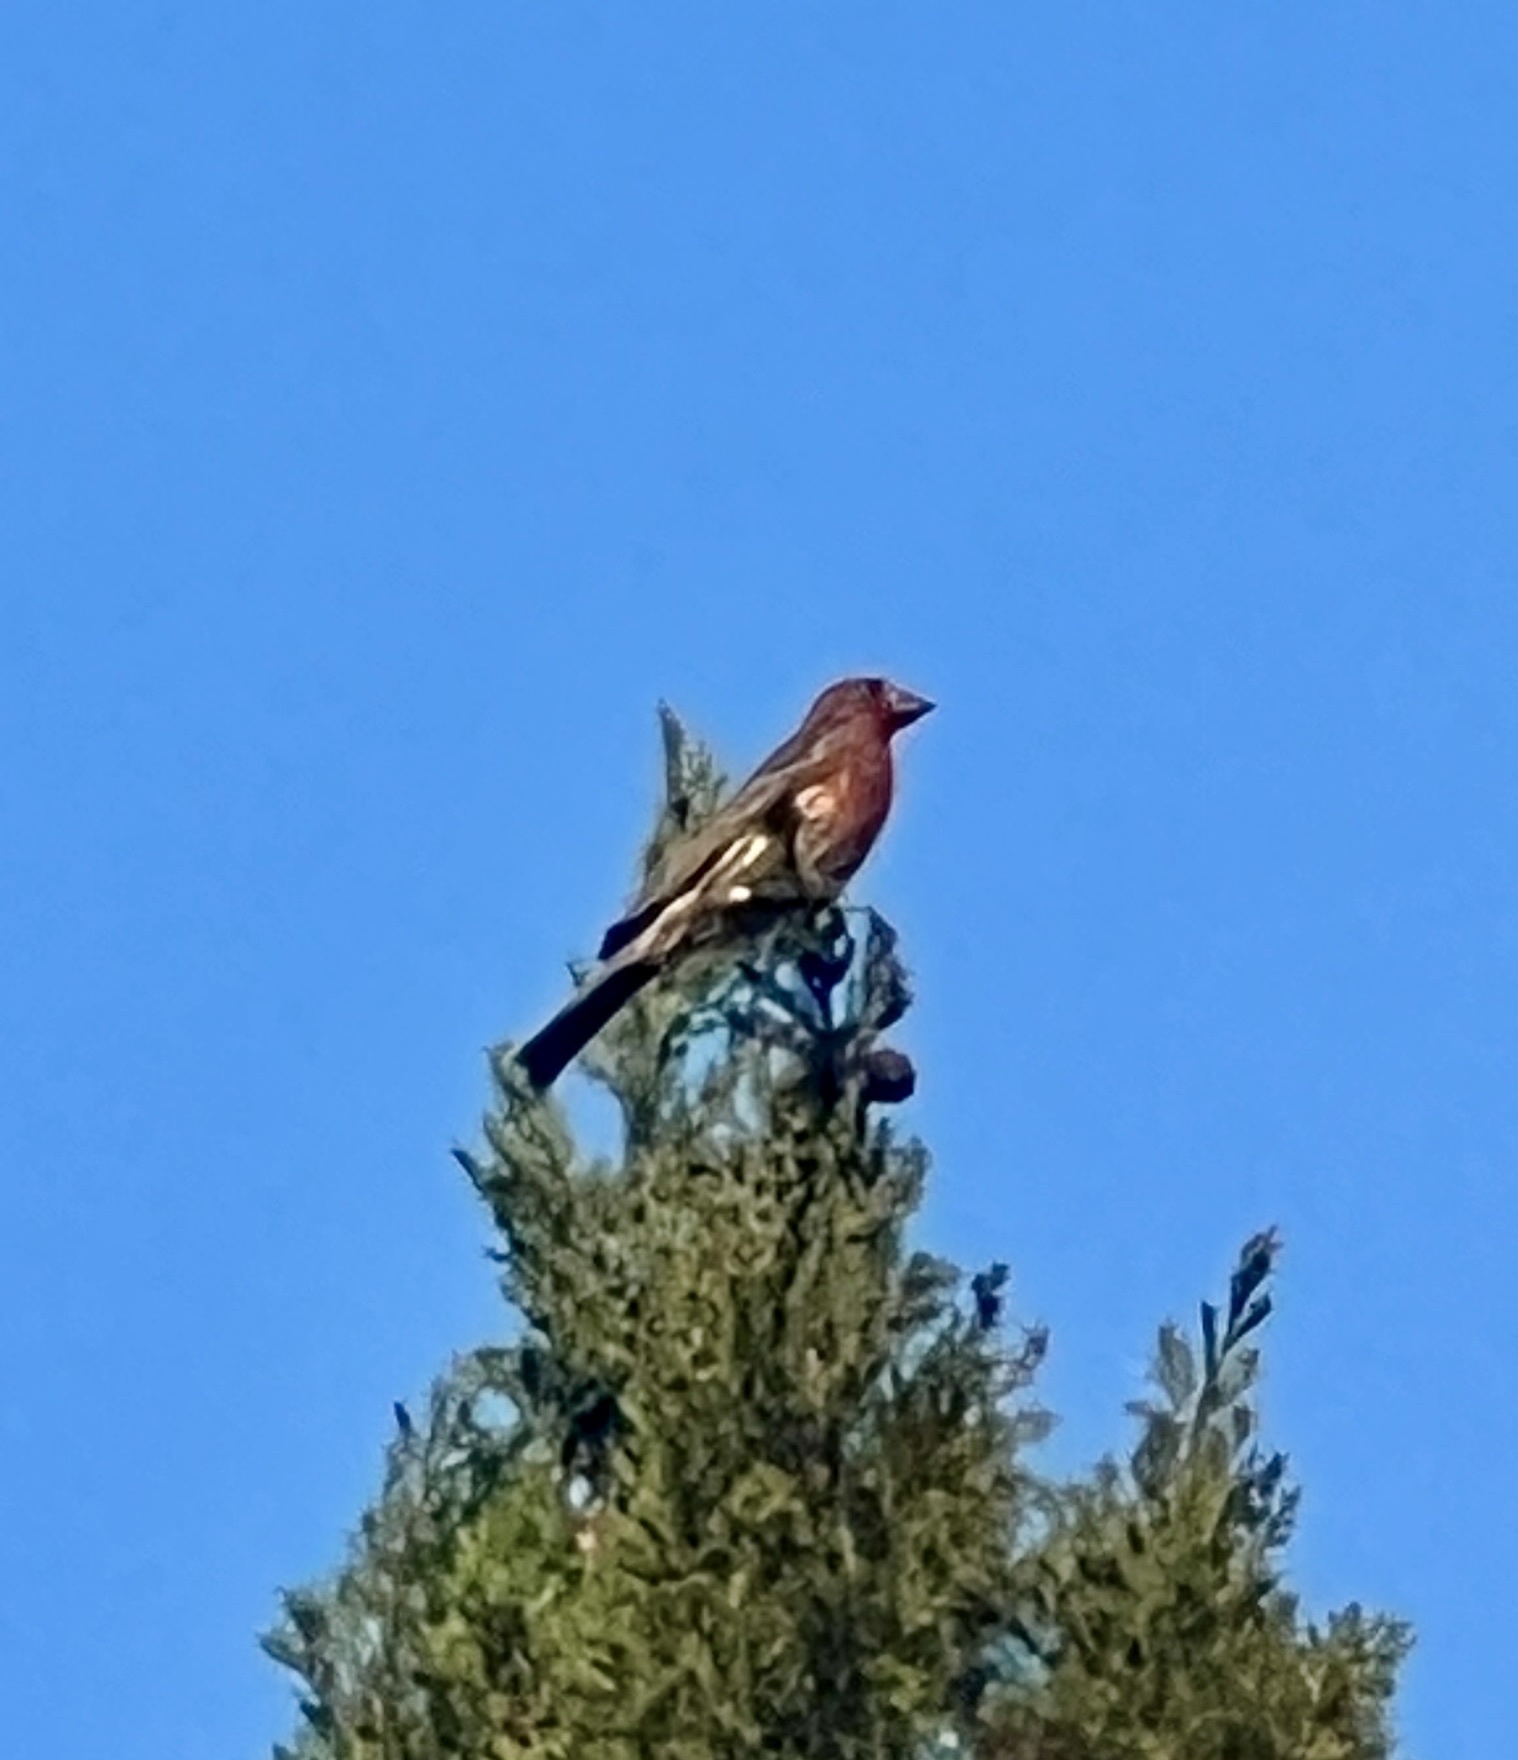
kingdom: Animalia
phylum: Chordata
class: Aves
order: Passeriformes
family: Fringillidae
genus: Haemorhous
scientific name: Haemorhous mexicanus
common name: House finch
